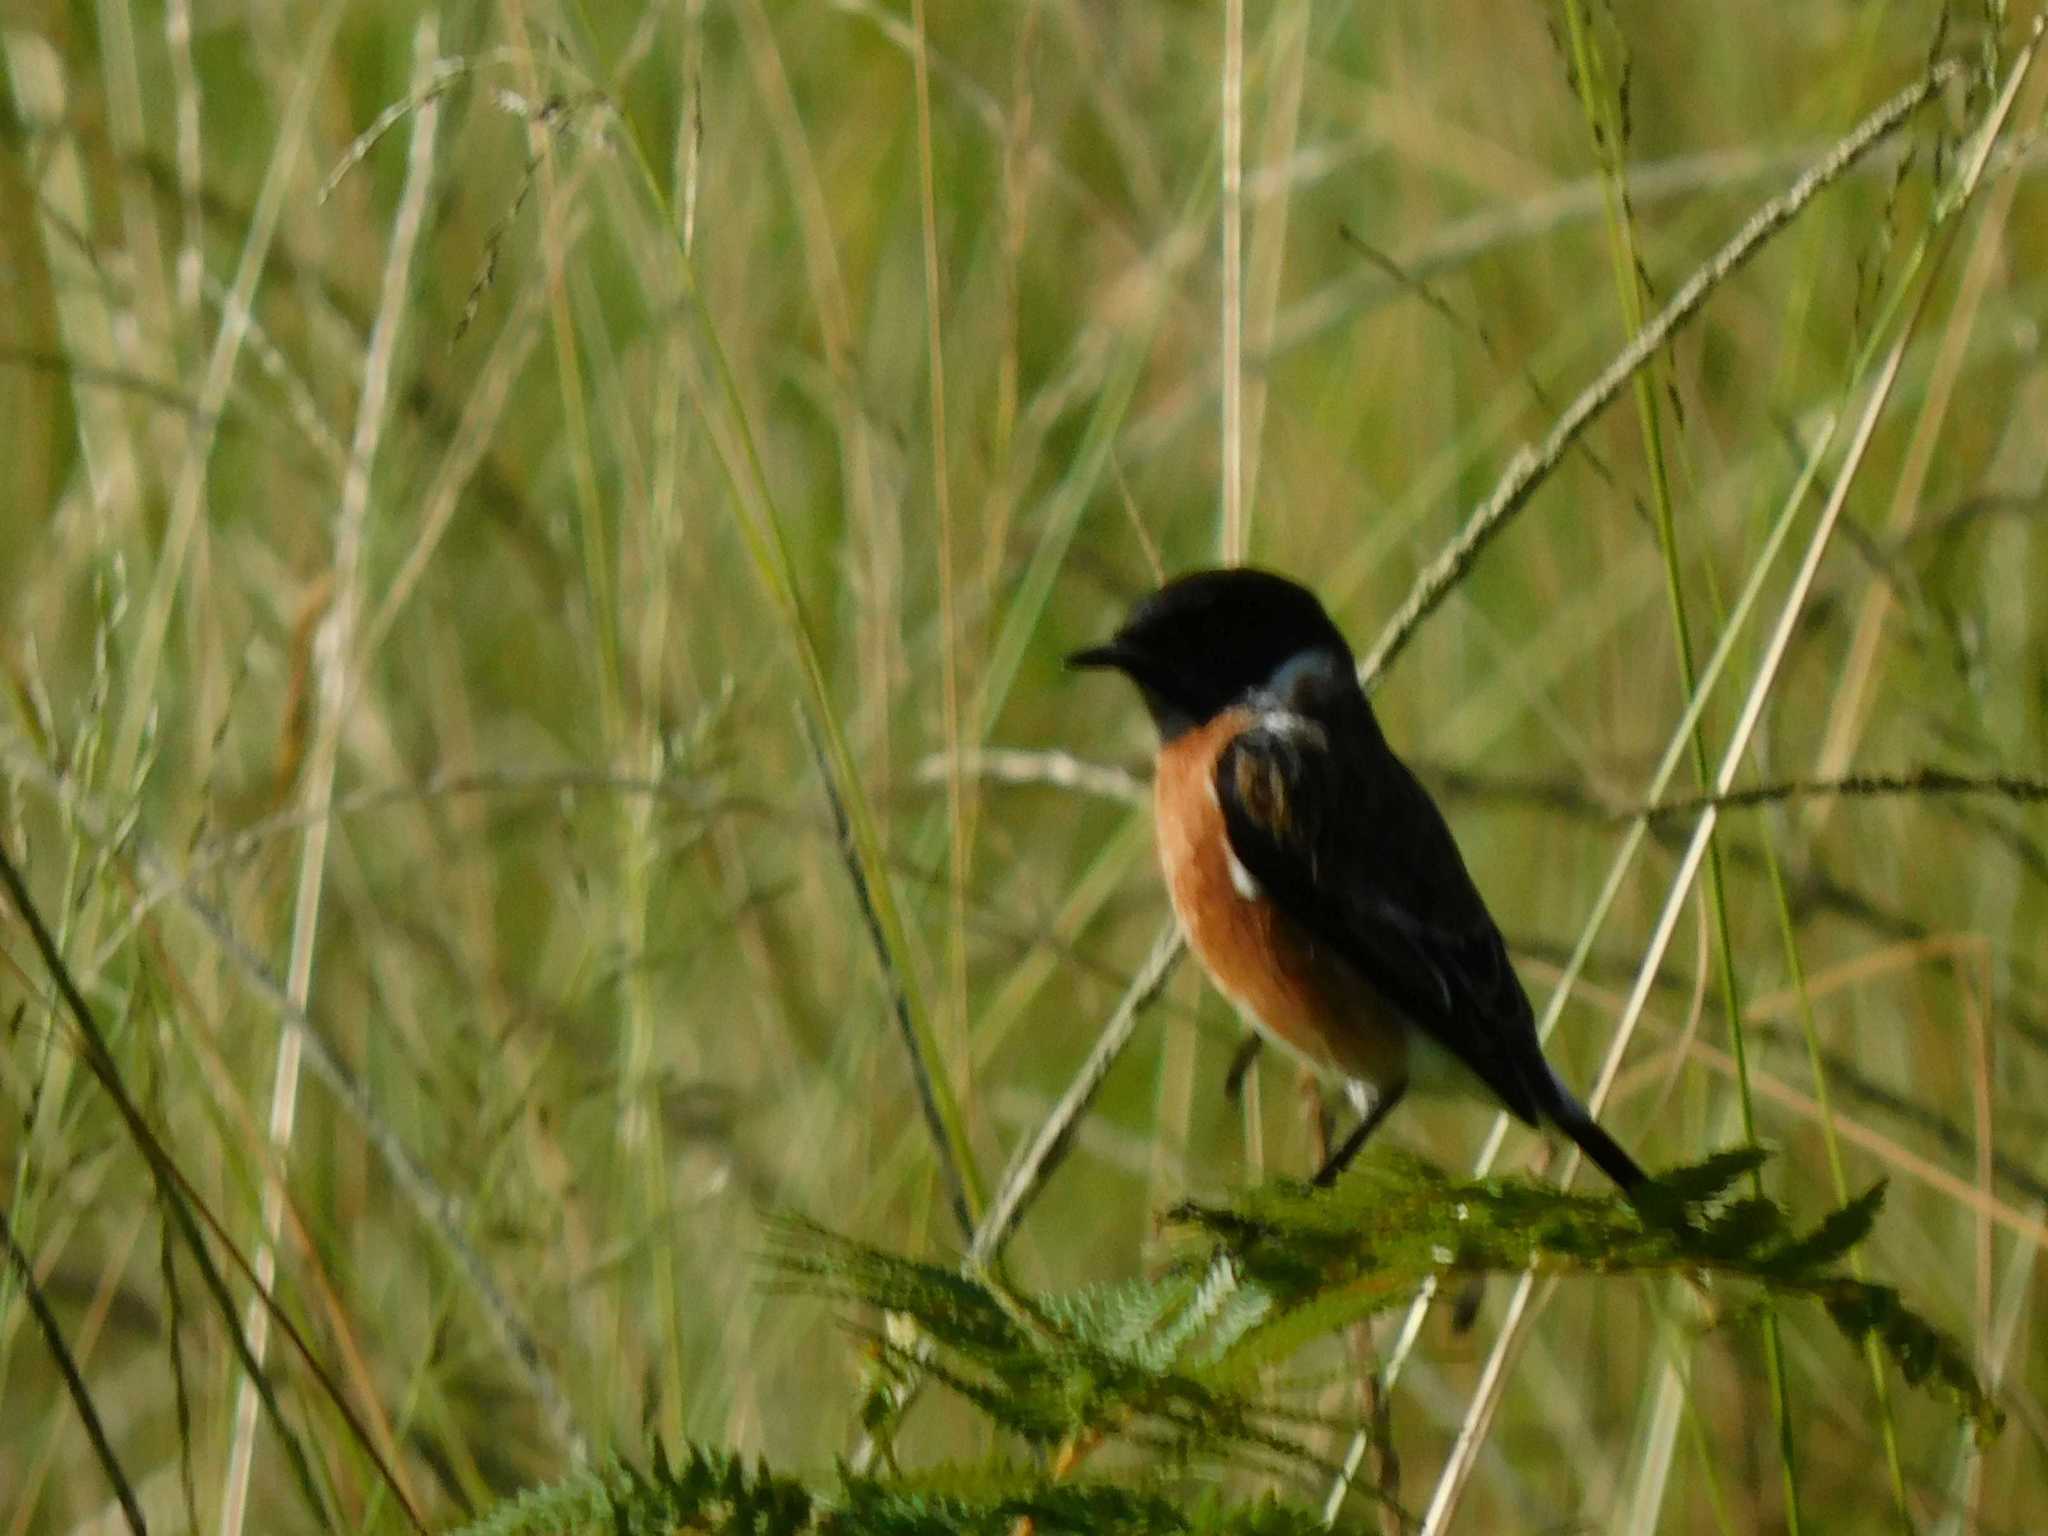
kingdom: Animalia
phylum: Chordata
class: Aves
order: Passeriformes
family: Muscicapidae
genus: Saxicola
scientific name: Saxicola torquatus
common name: African stonechat
